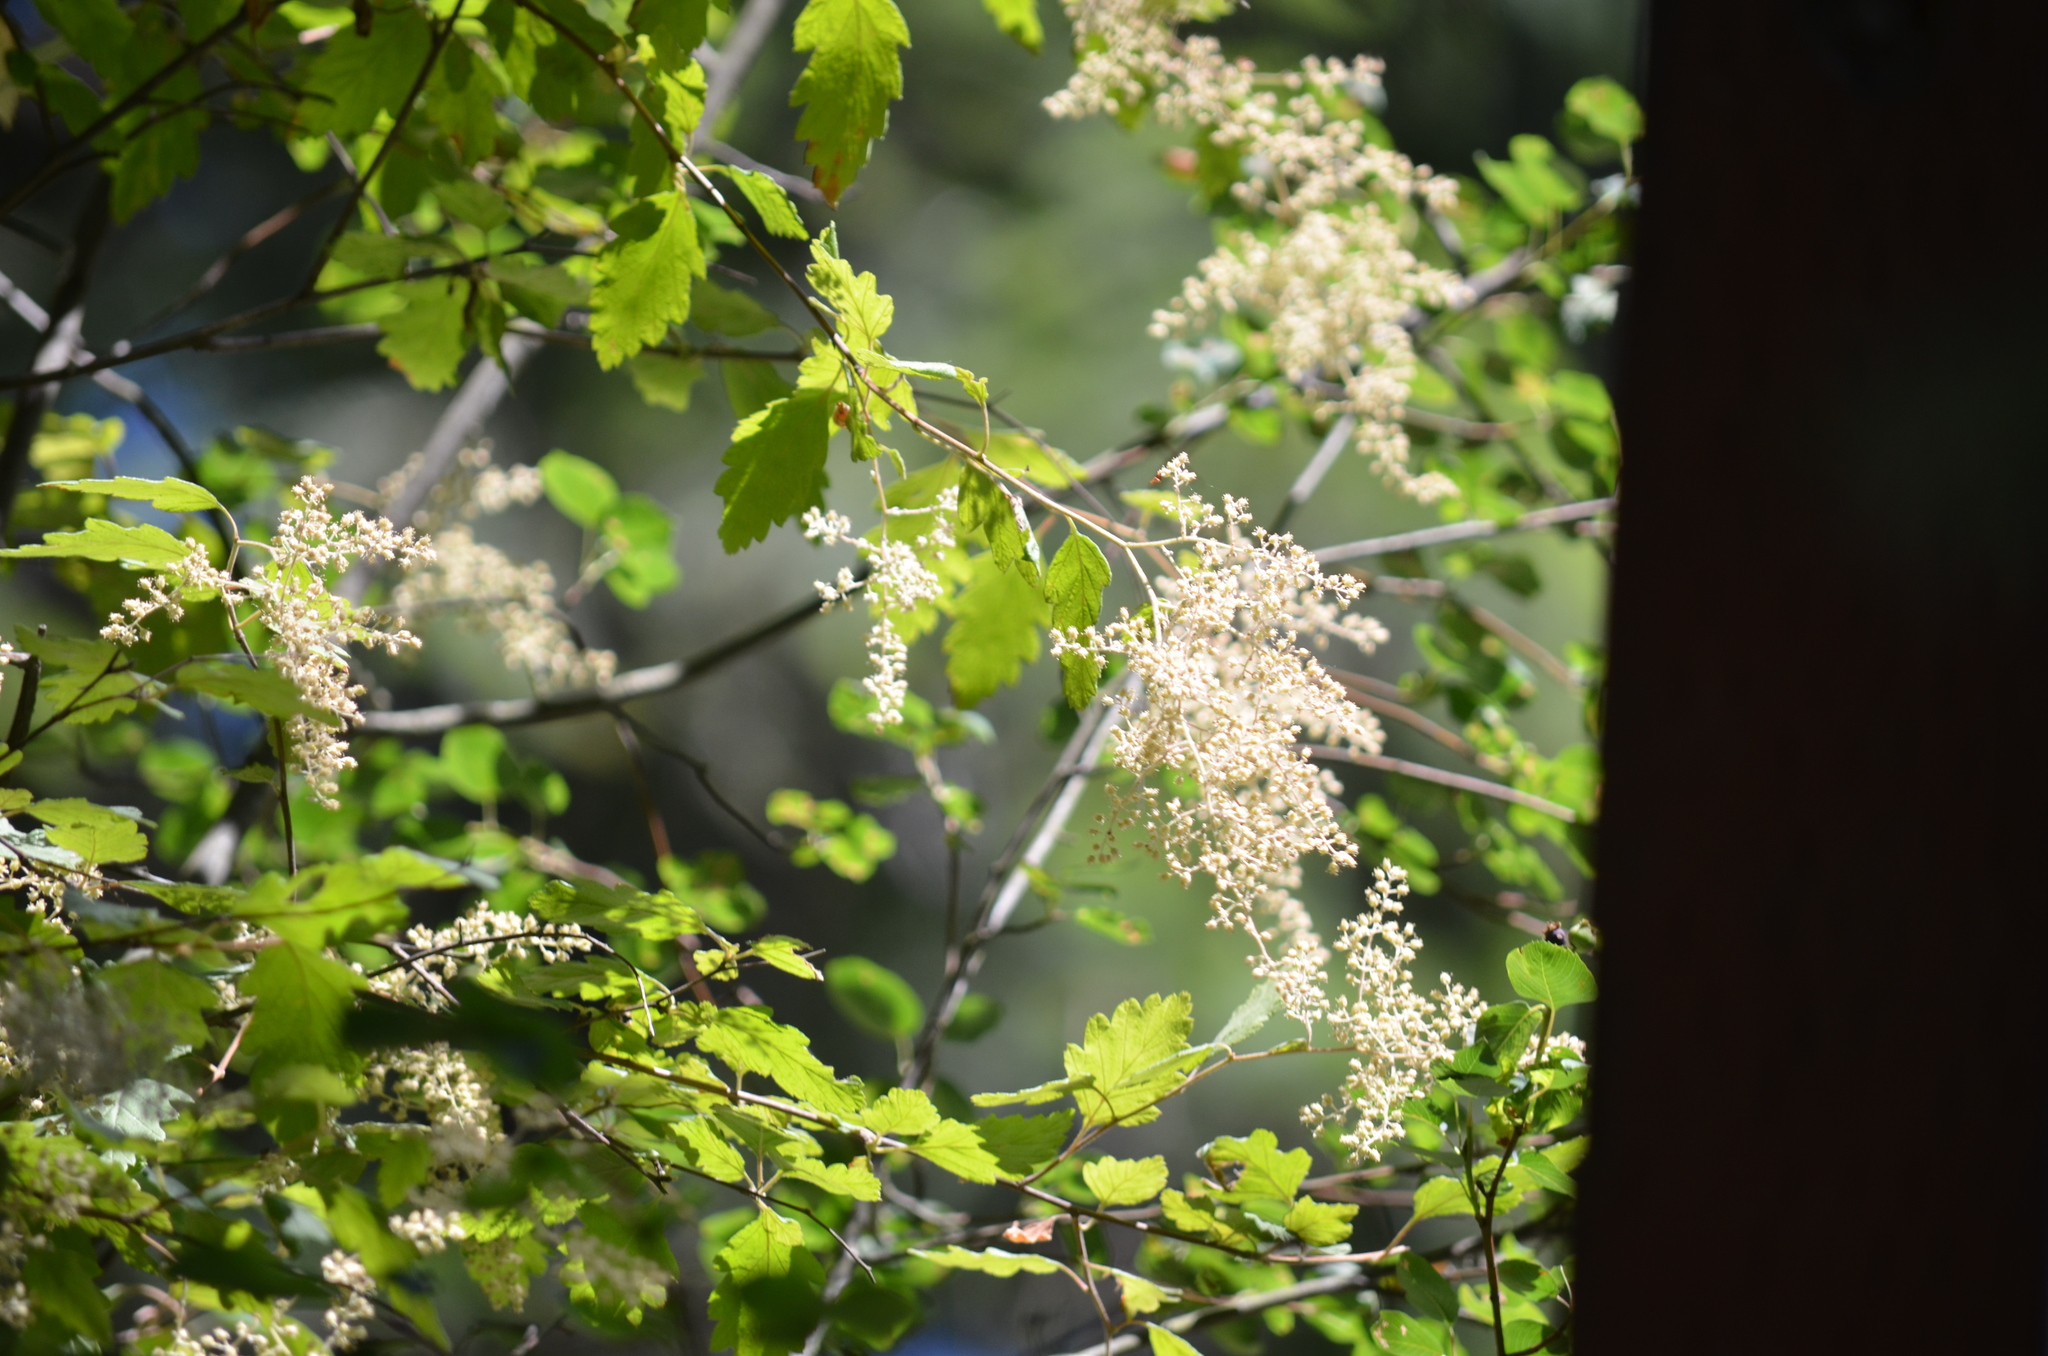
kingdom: Plantae
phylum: Tracheophyta
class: Magnoliopsida
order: Rosales
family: Rosaceae
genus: Holodiscus
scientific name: Holodiscus discolor
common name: Oceanspray
